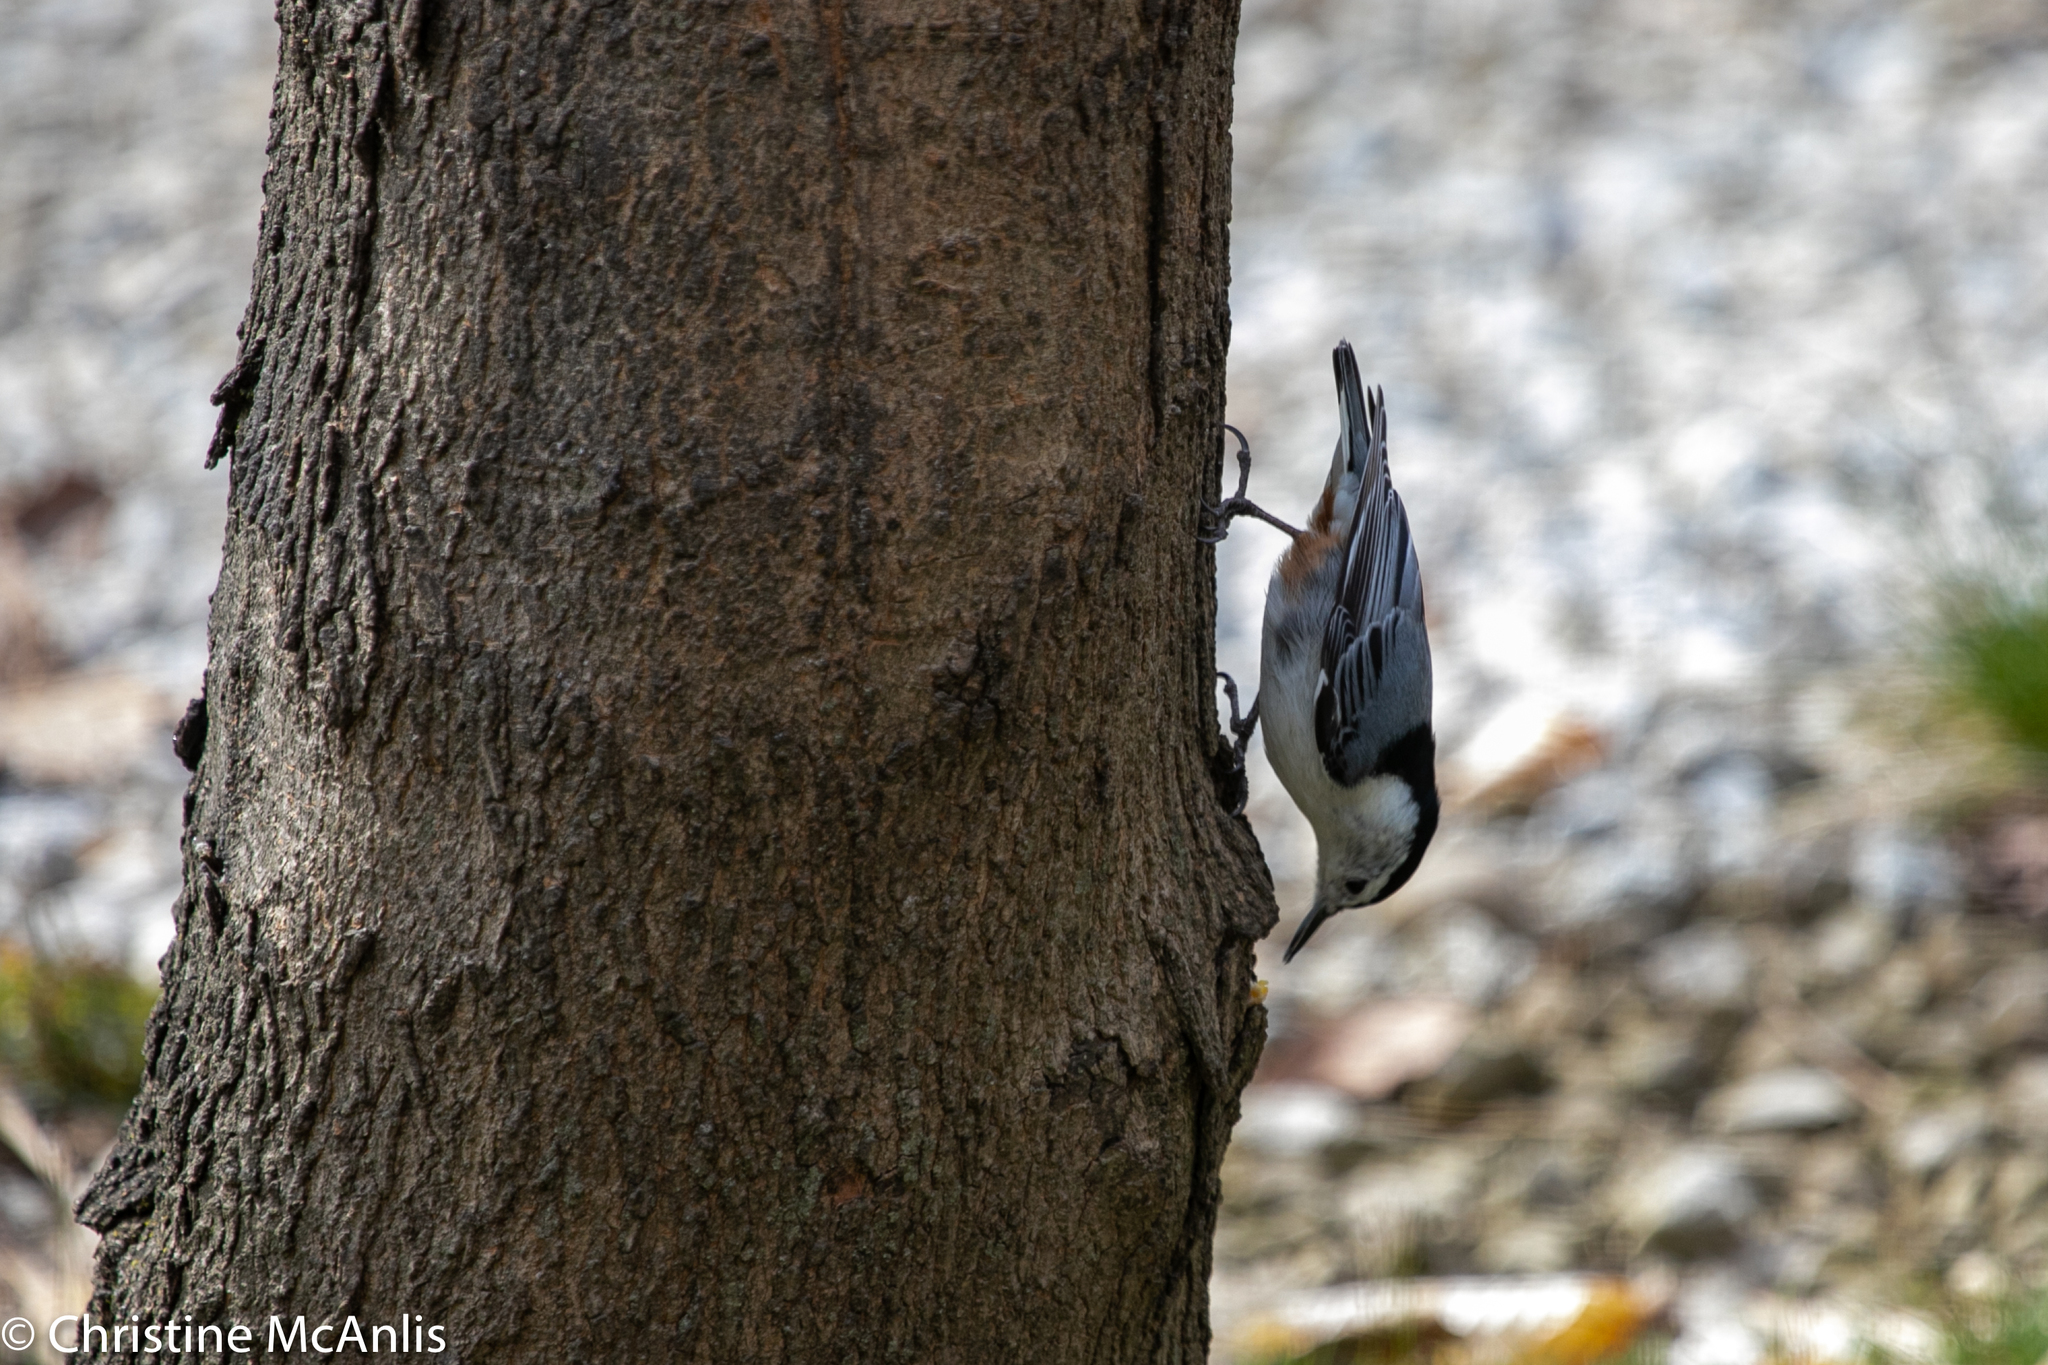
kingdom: Animalia
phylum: Chordata
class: Aves
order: Passeriformes
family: Sittidae
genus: Sitta
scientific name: Sitta carolinensis
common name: White-breasted nuthatch
